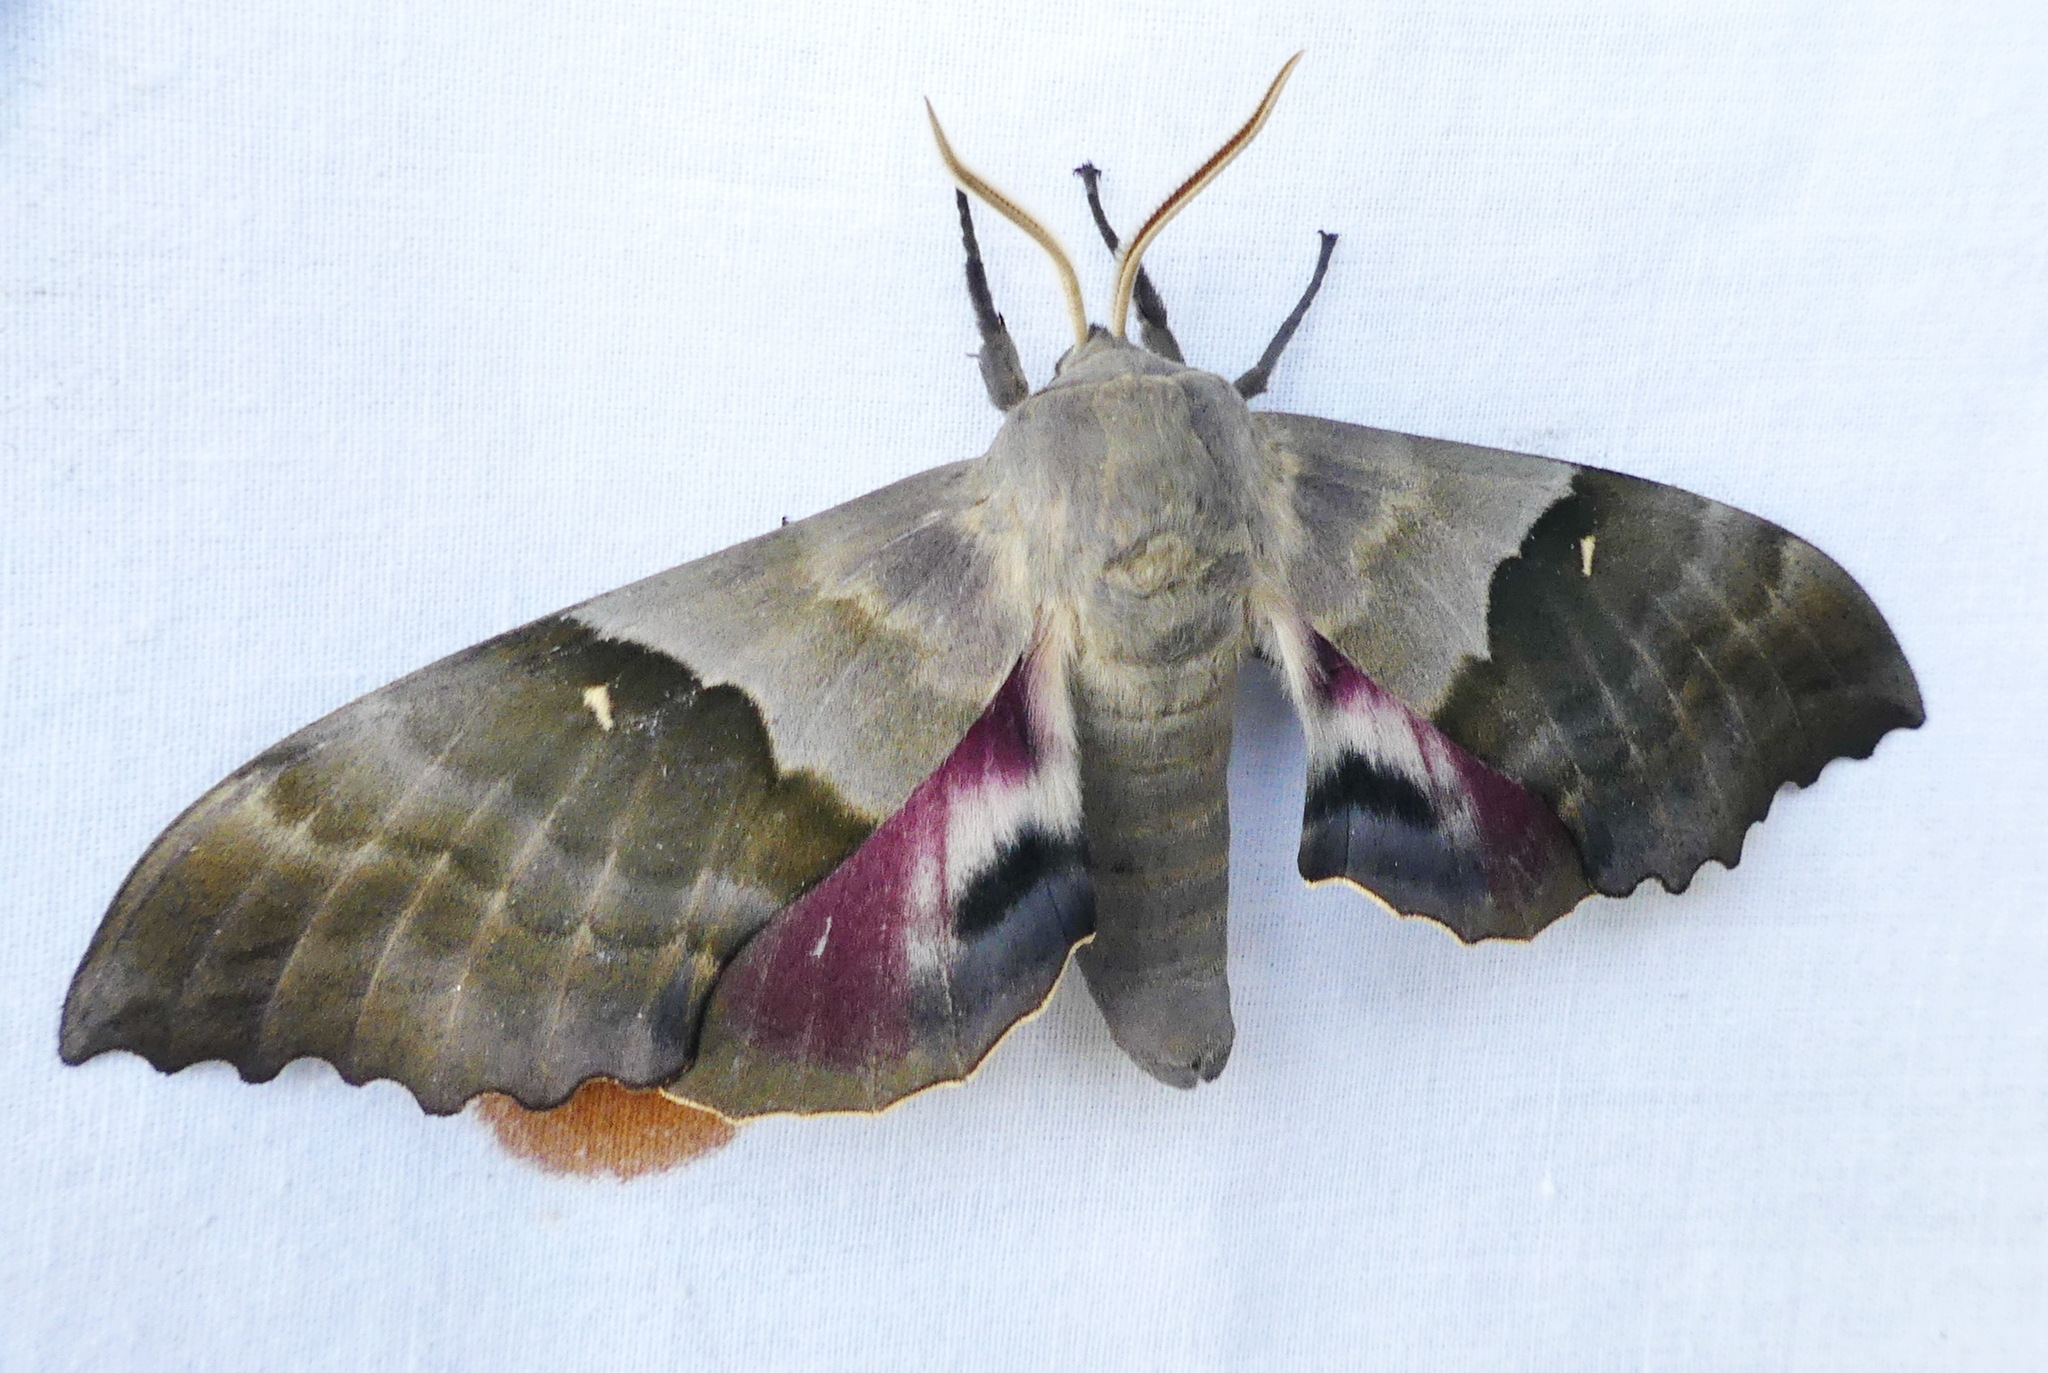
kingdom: Animalia
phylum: Arthropoda
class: Insecta
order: Lepidoptera
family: Sphingidae
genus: Pachysphinx
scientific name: Pachysphinx modesta
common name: Big poplar sphinx
